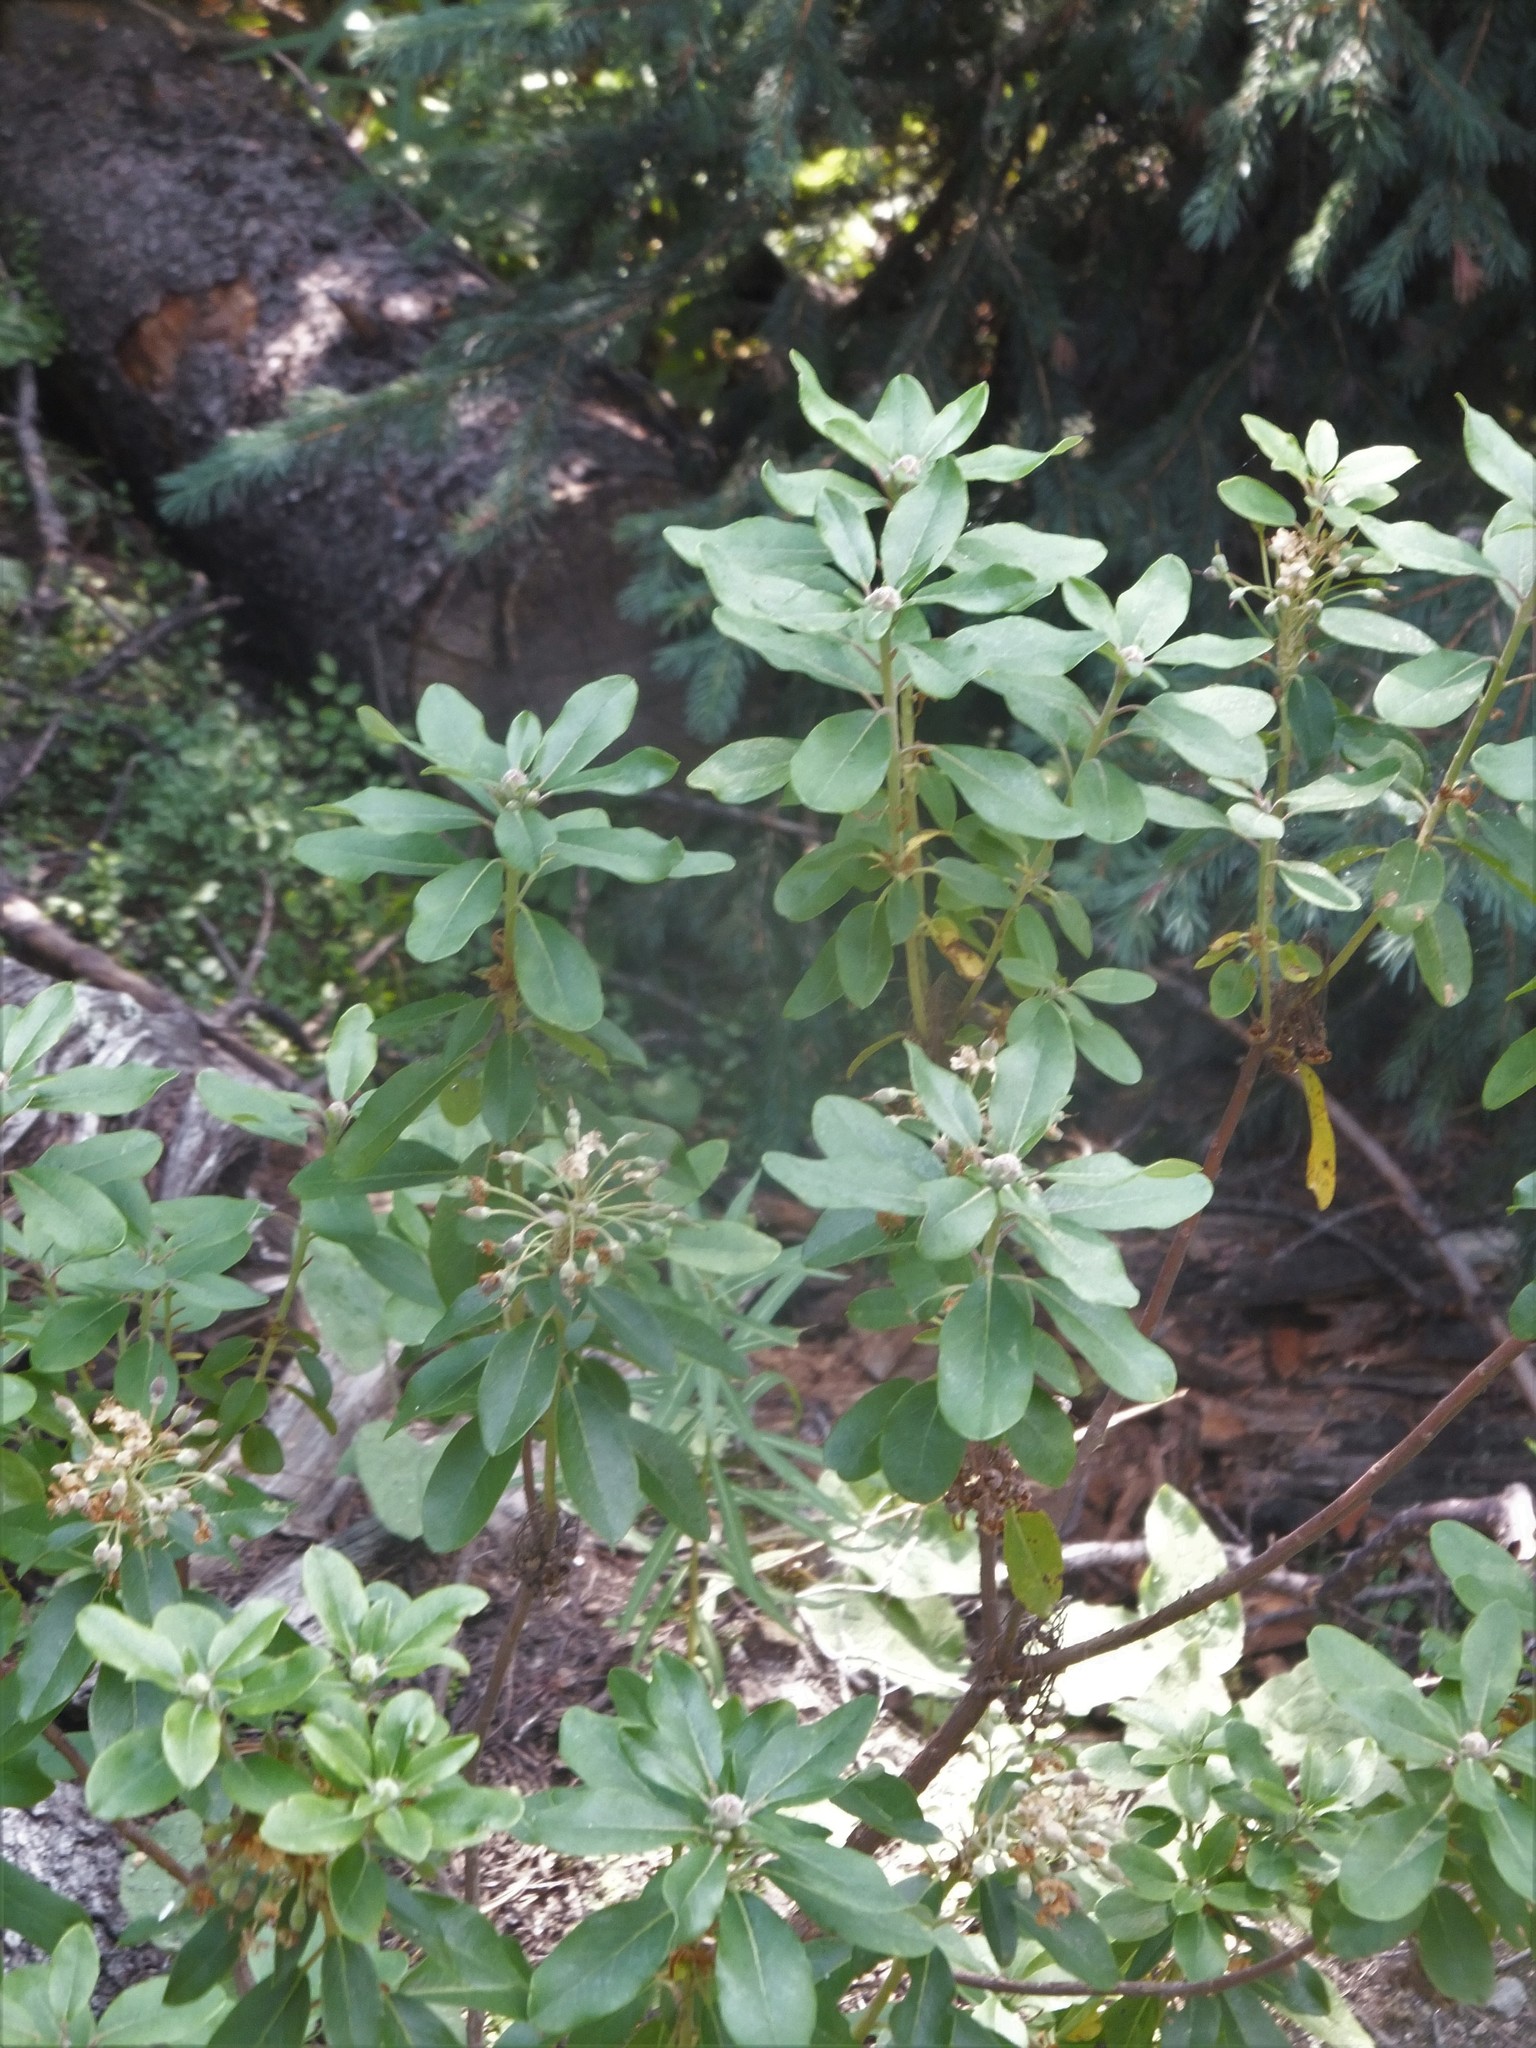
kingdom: Plantae
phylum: Tracheophyta
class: Magnoliopsida
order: Ericales
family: Ericaceae
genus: Rhododendron
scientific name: Rhododendron columbianum
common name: Western labrador tea
